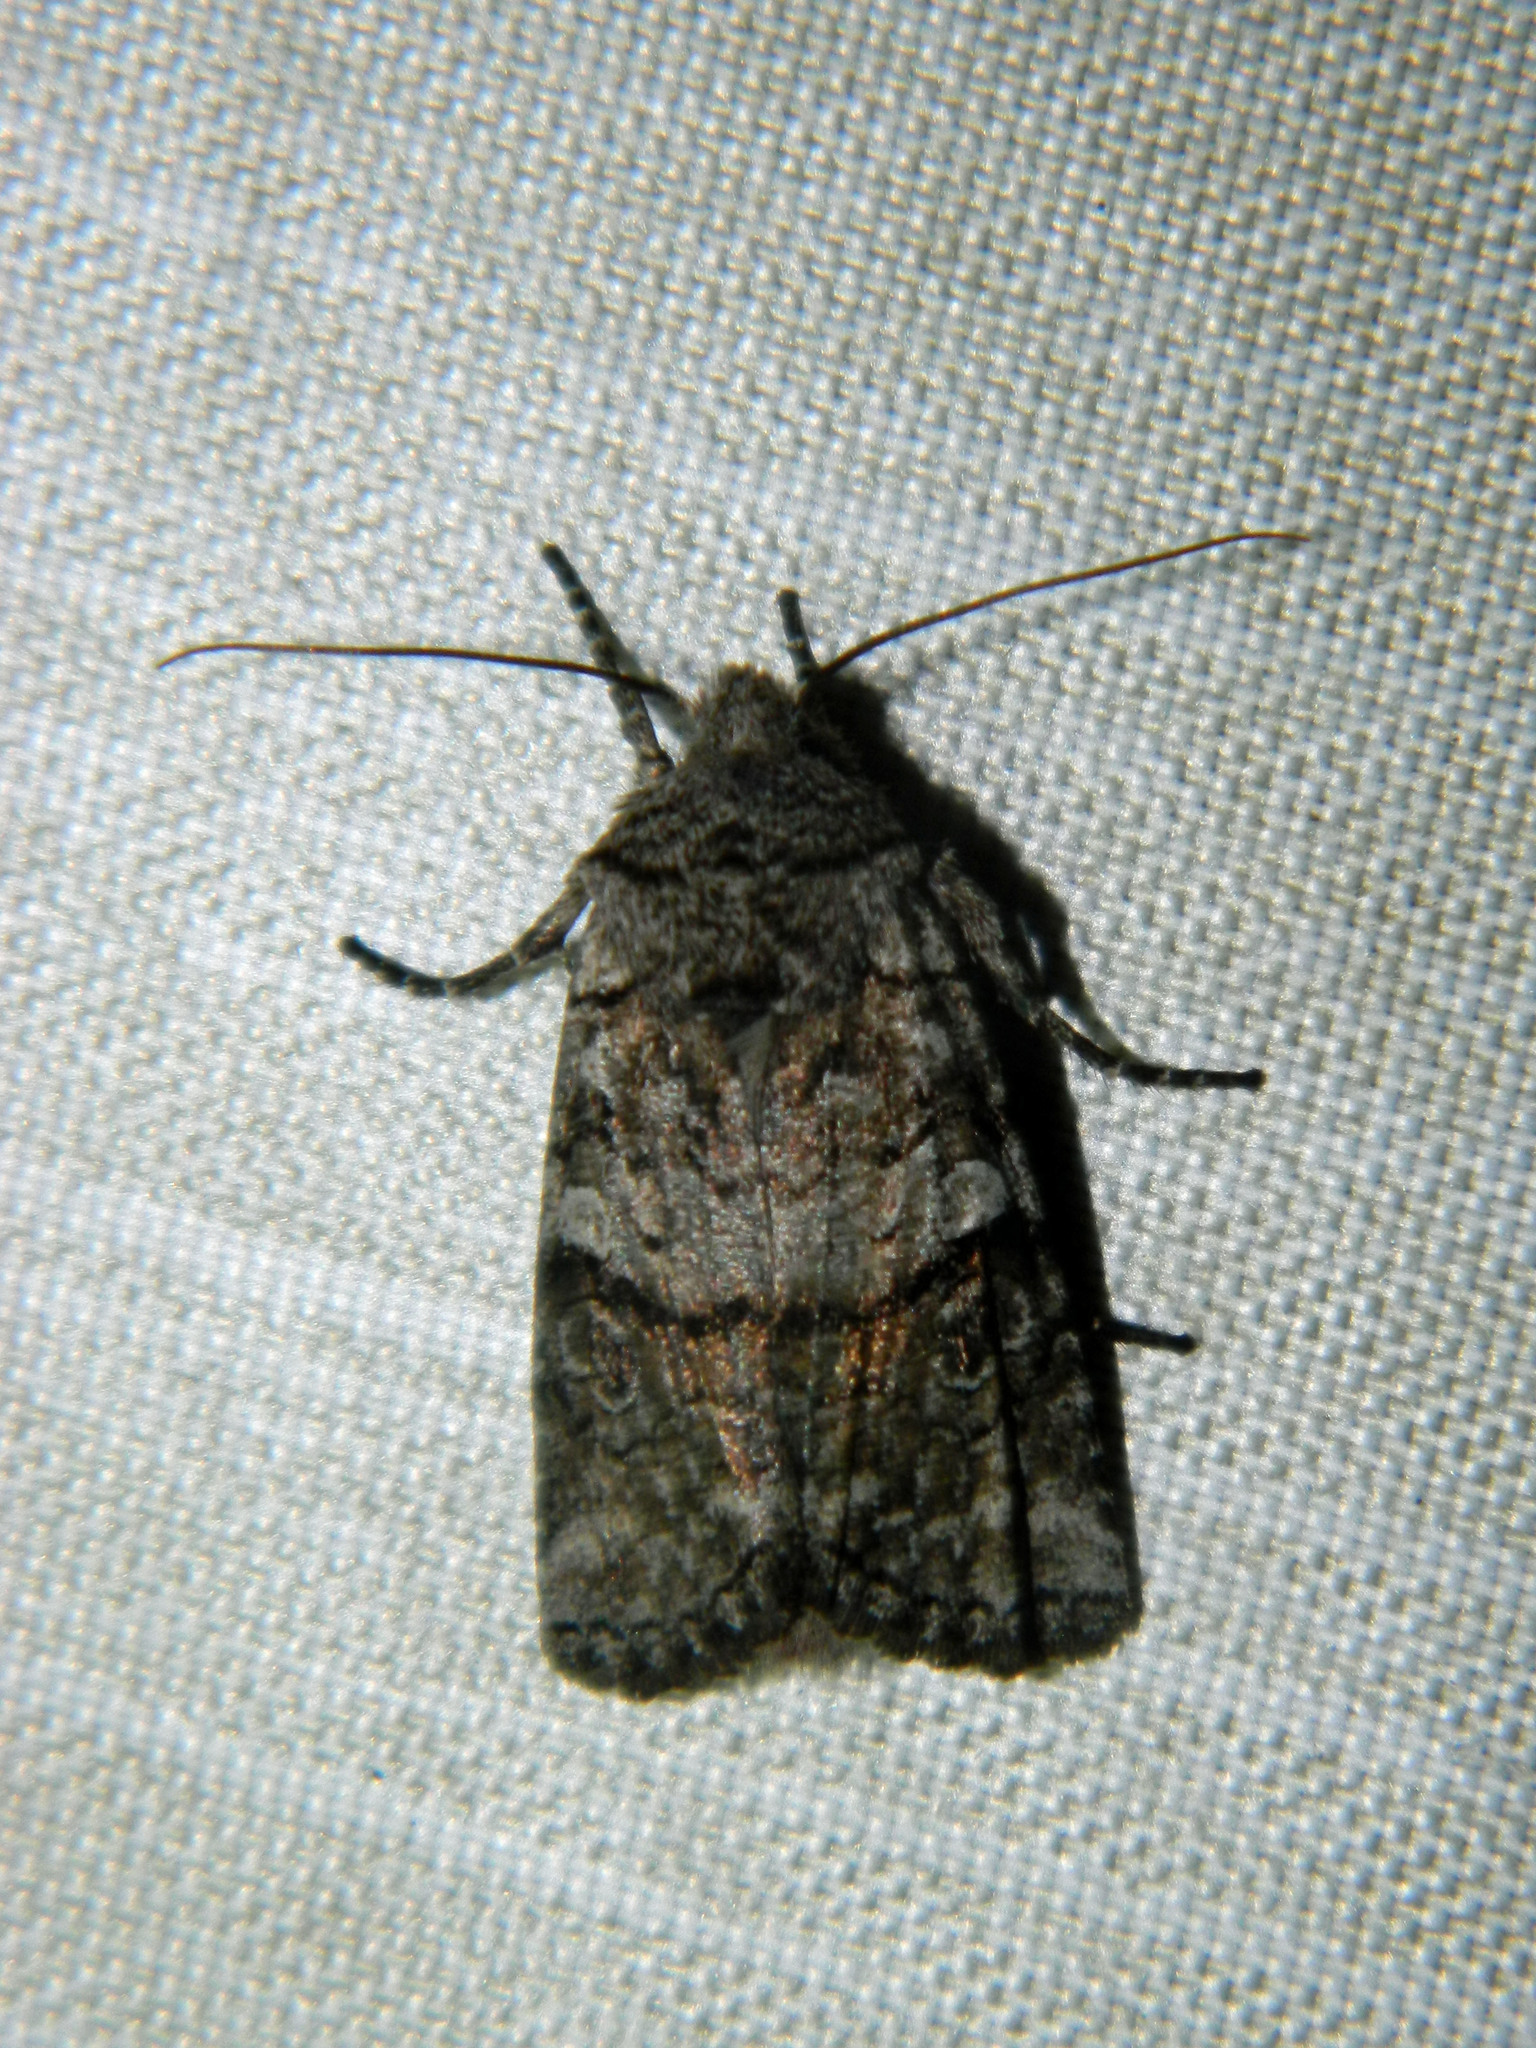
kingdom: Animalia
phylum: Arthropoda
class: Insecta
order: Lepidoptera
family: Noctuidae
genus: Litholomia
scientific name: Litholomia napaea
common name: False pinion moth
